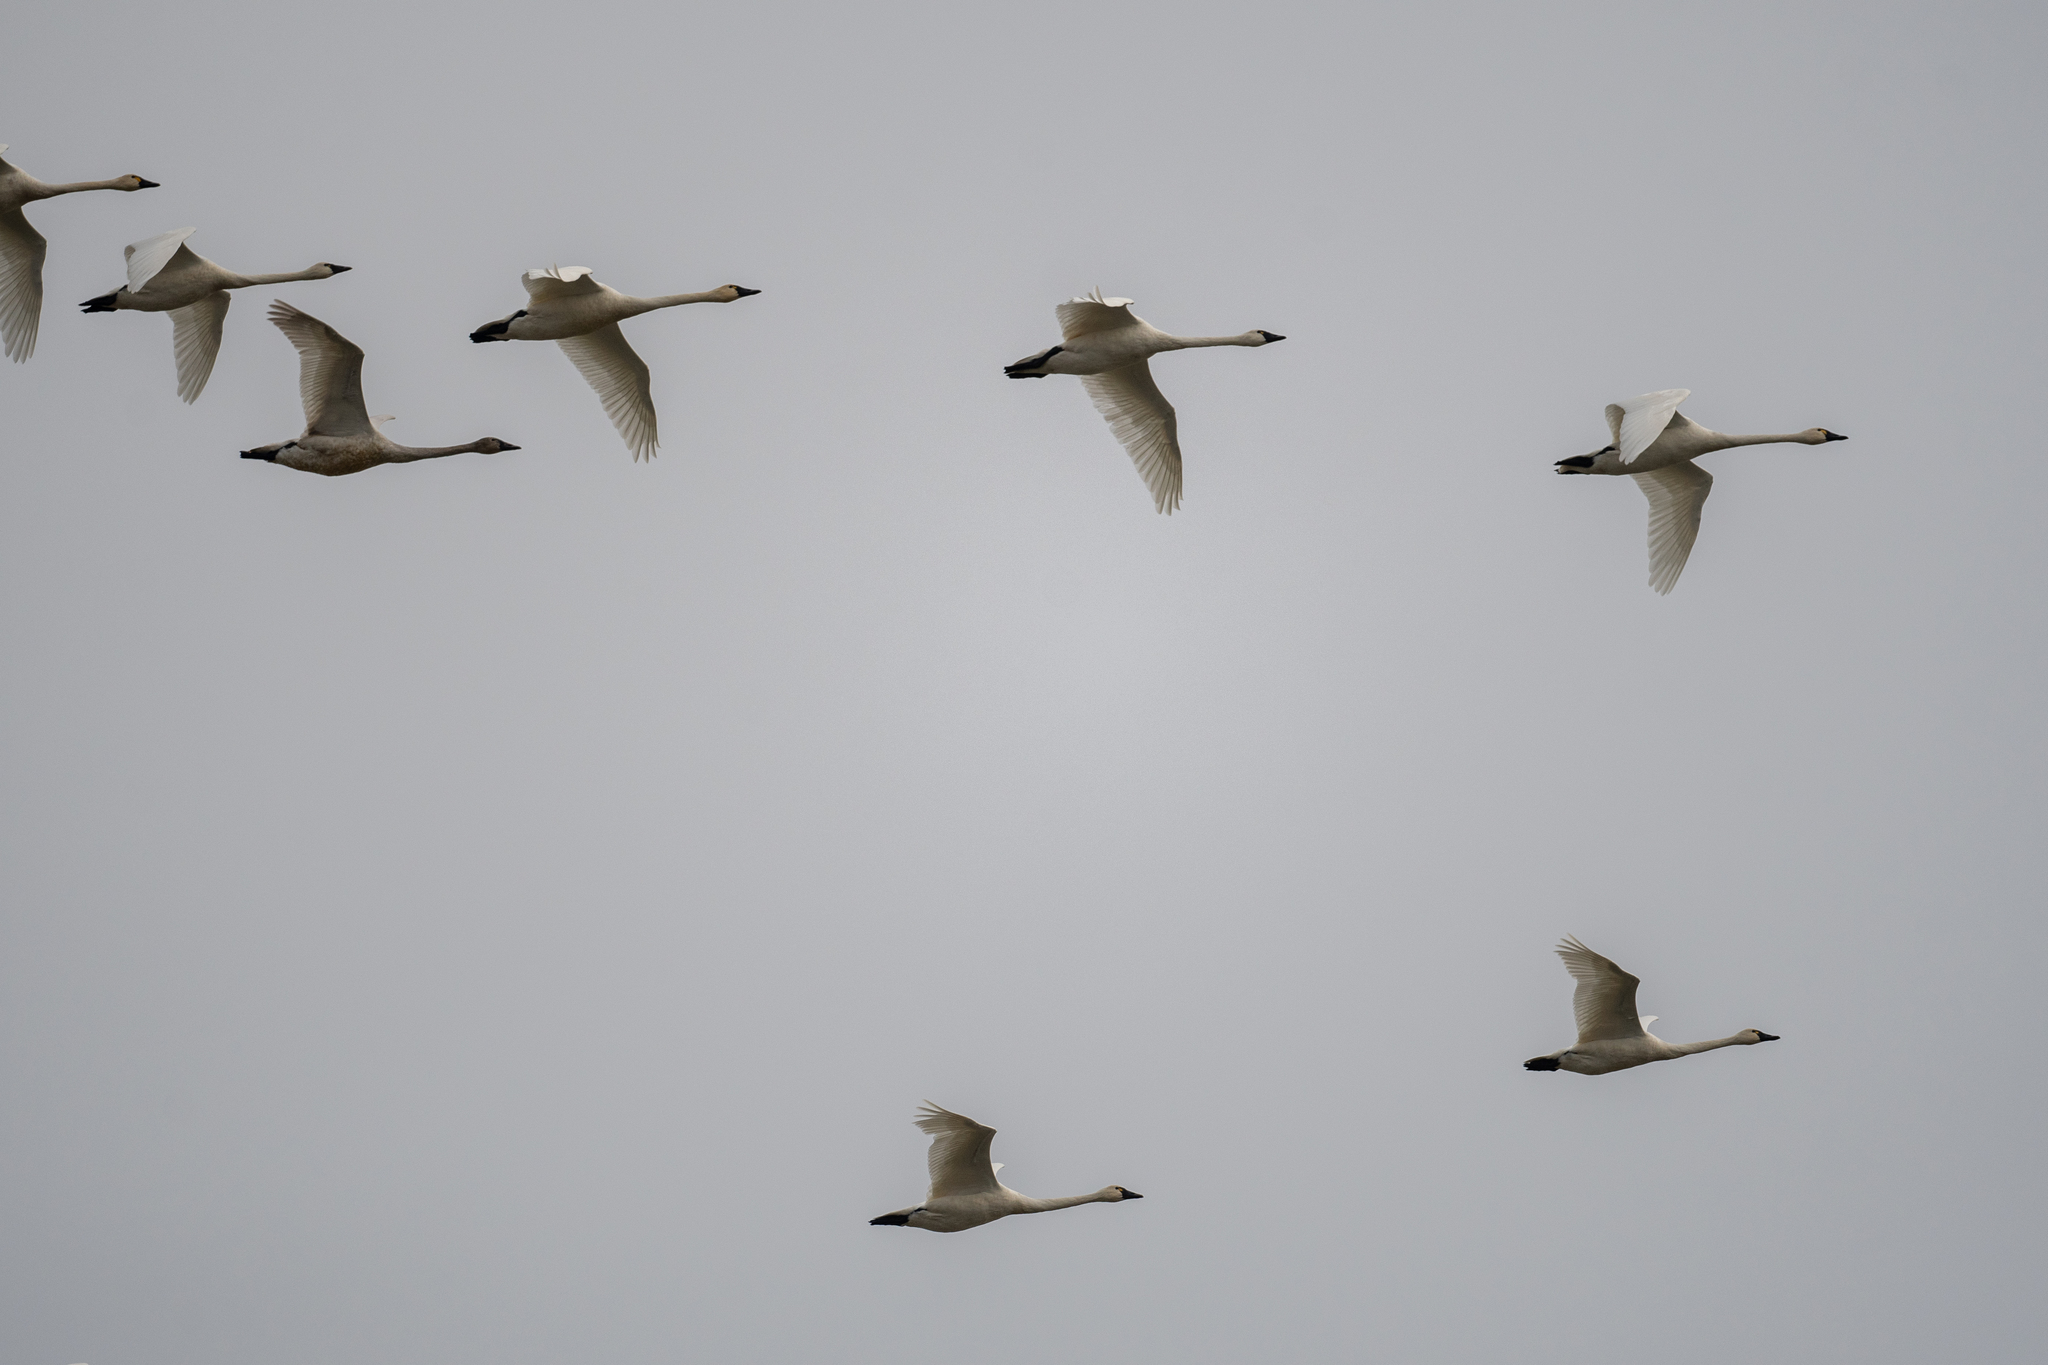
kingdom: Animalia
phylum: Chordata
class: Aves
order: Anseriformes
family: Anatidae
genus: Cygnus
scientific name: Cygnus columbianus
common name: Tundra swan
